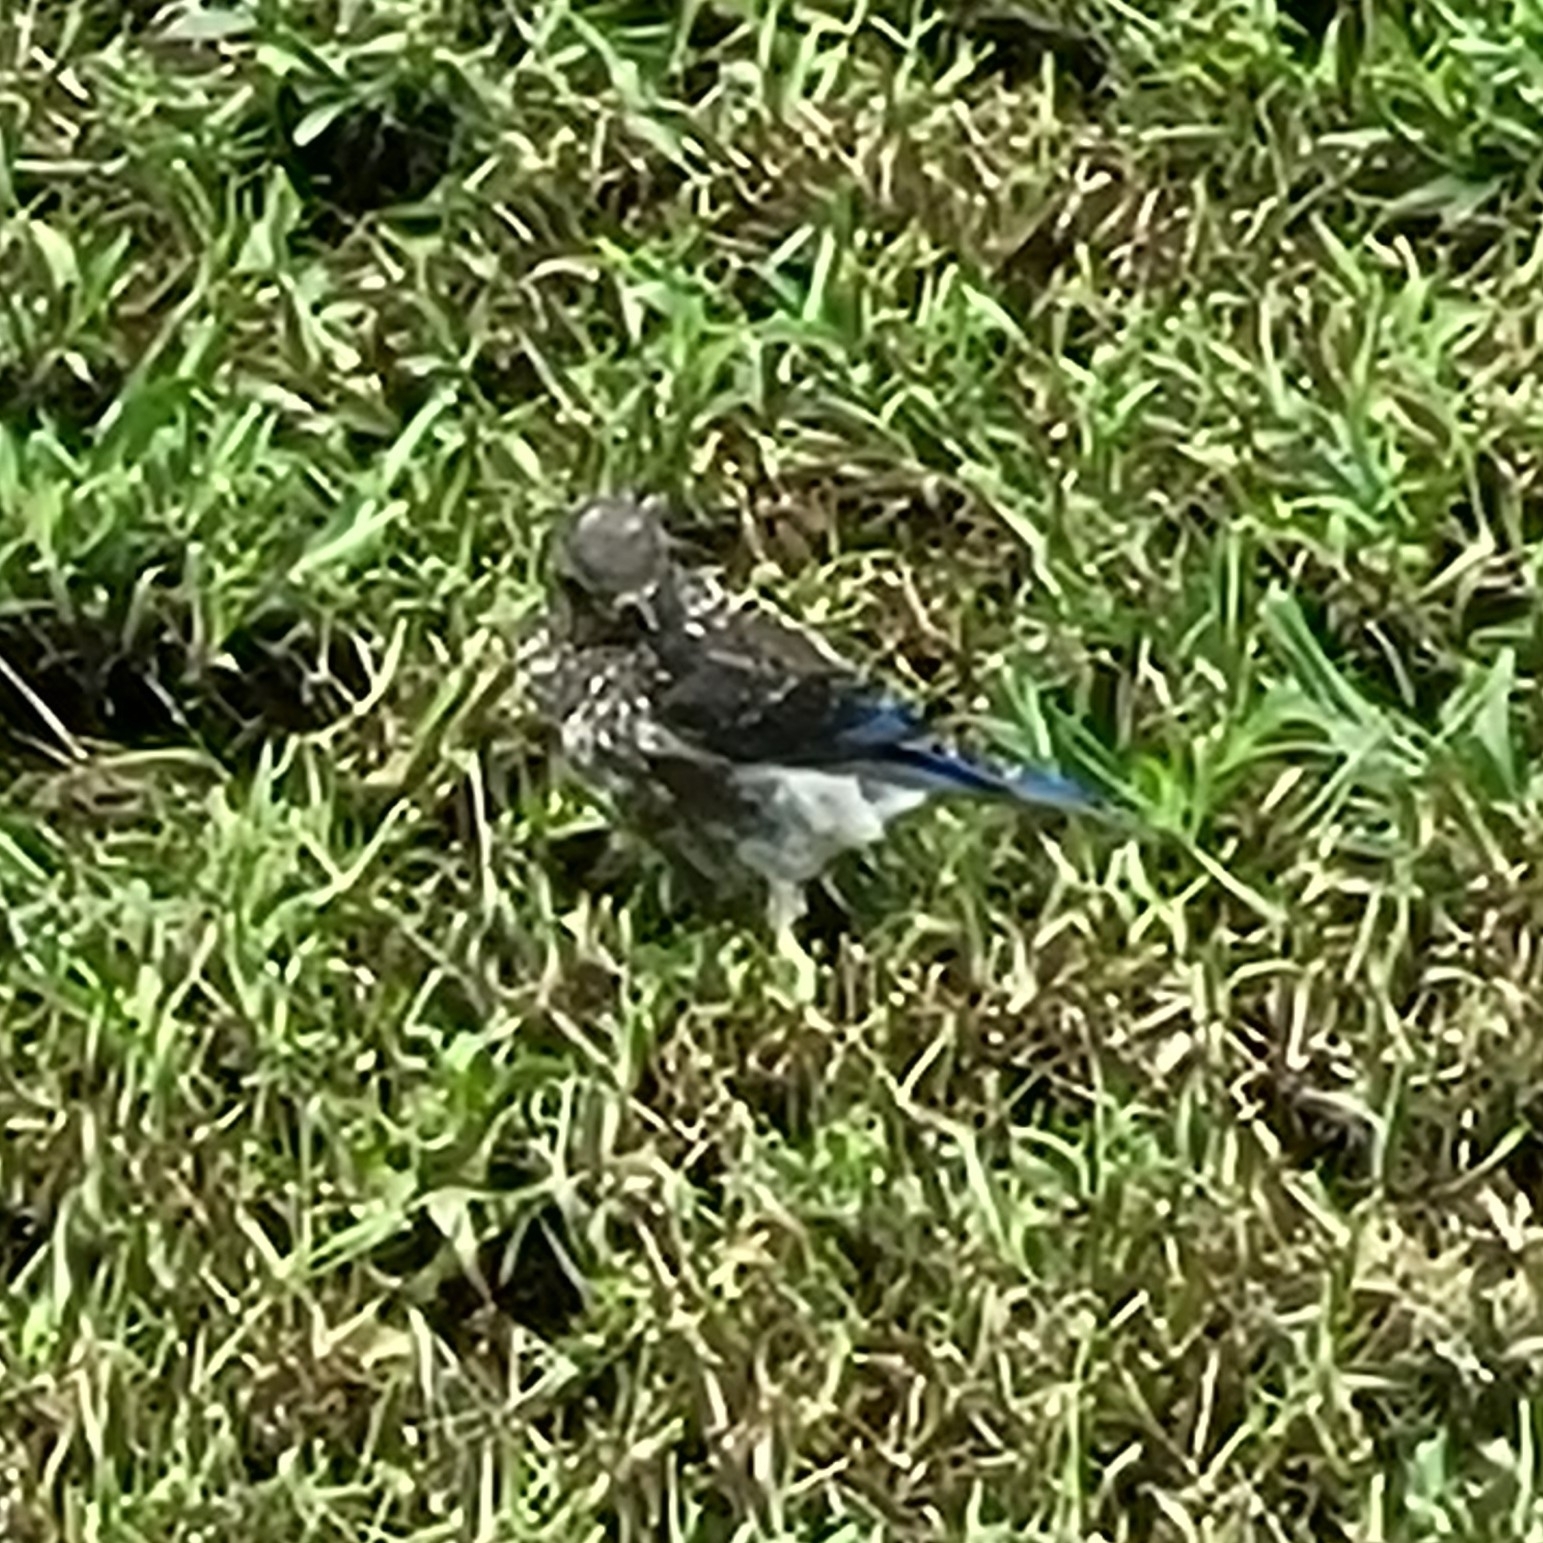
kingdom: Animalia
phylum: Chordata
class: Aves
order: Passeriformes
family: Turdidae
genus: Sialia
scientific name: Sialia sialis
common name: Eastern bluebird
